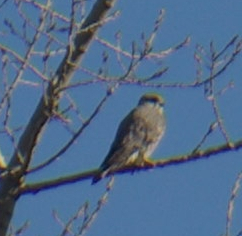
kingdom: Animalia
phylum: Chordata
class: Aves
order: Falconiformes
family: Falconidae
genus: Falco
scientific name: Falco columbarius
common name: Merlin
